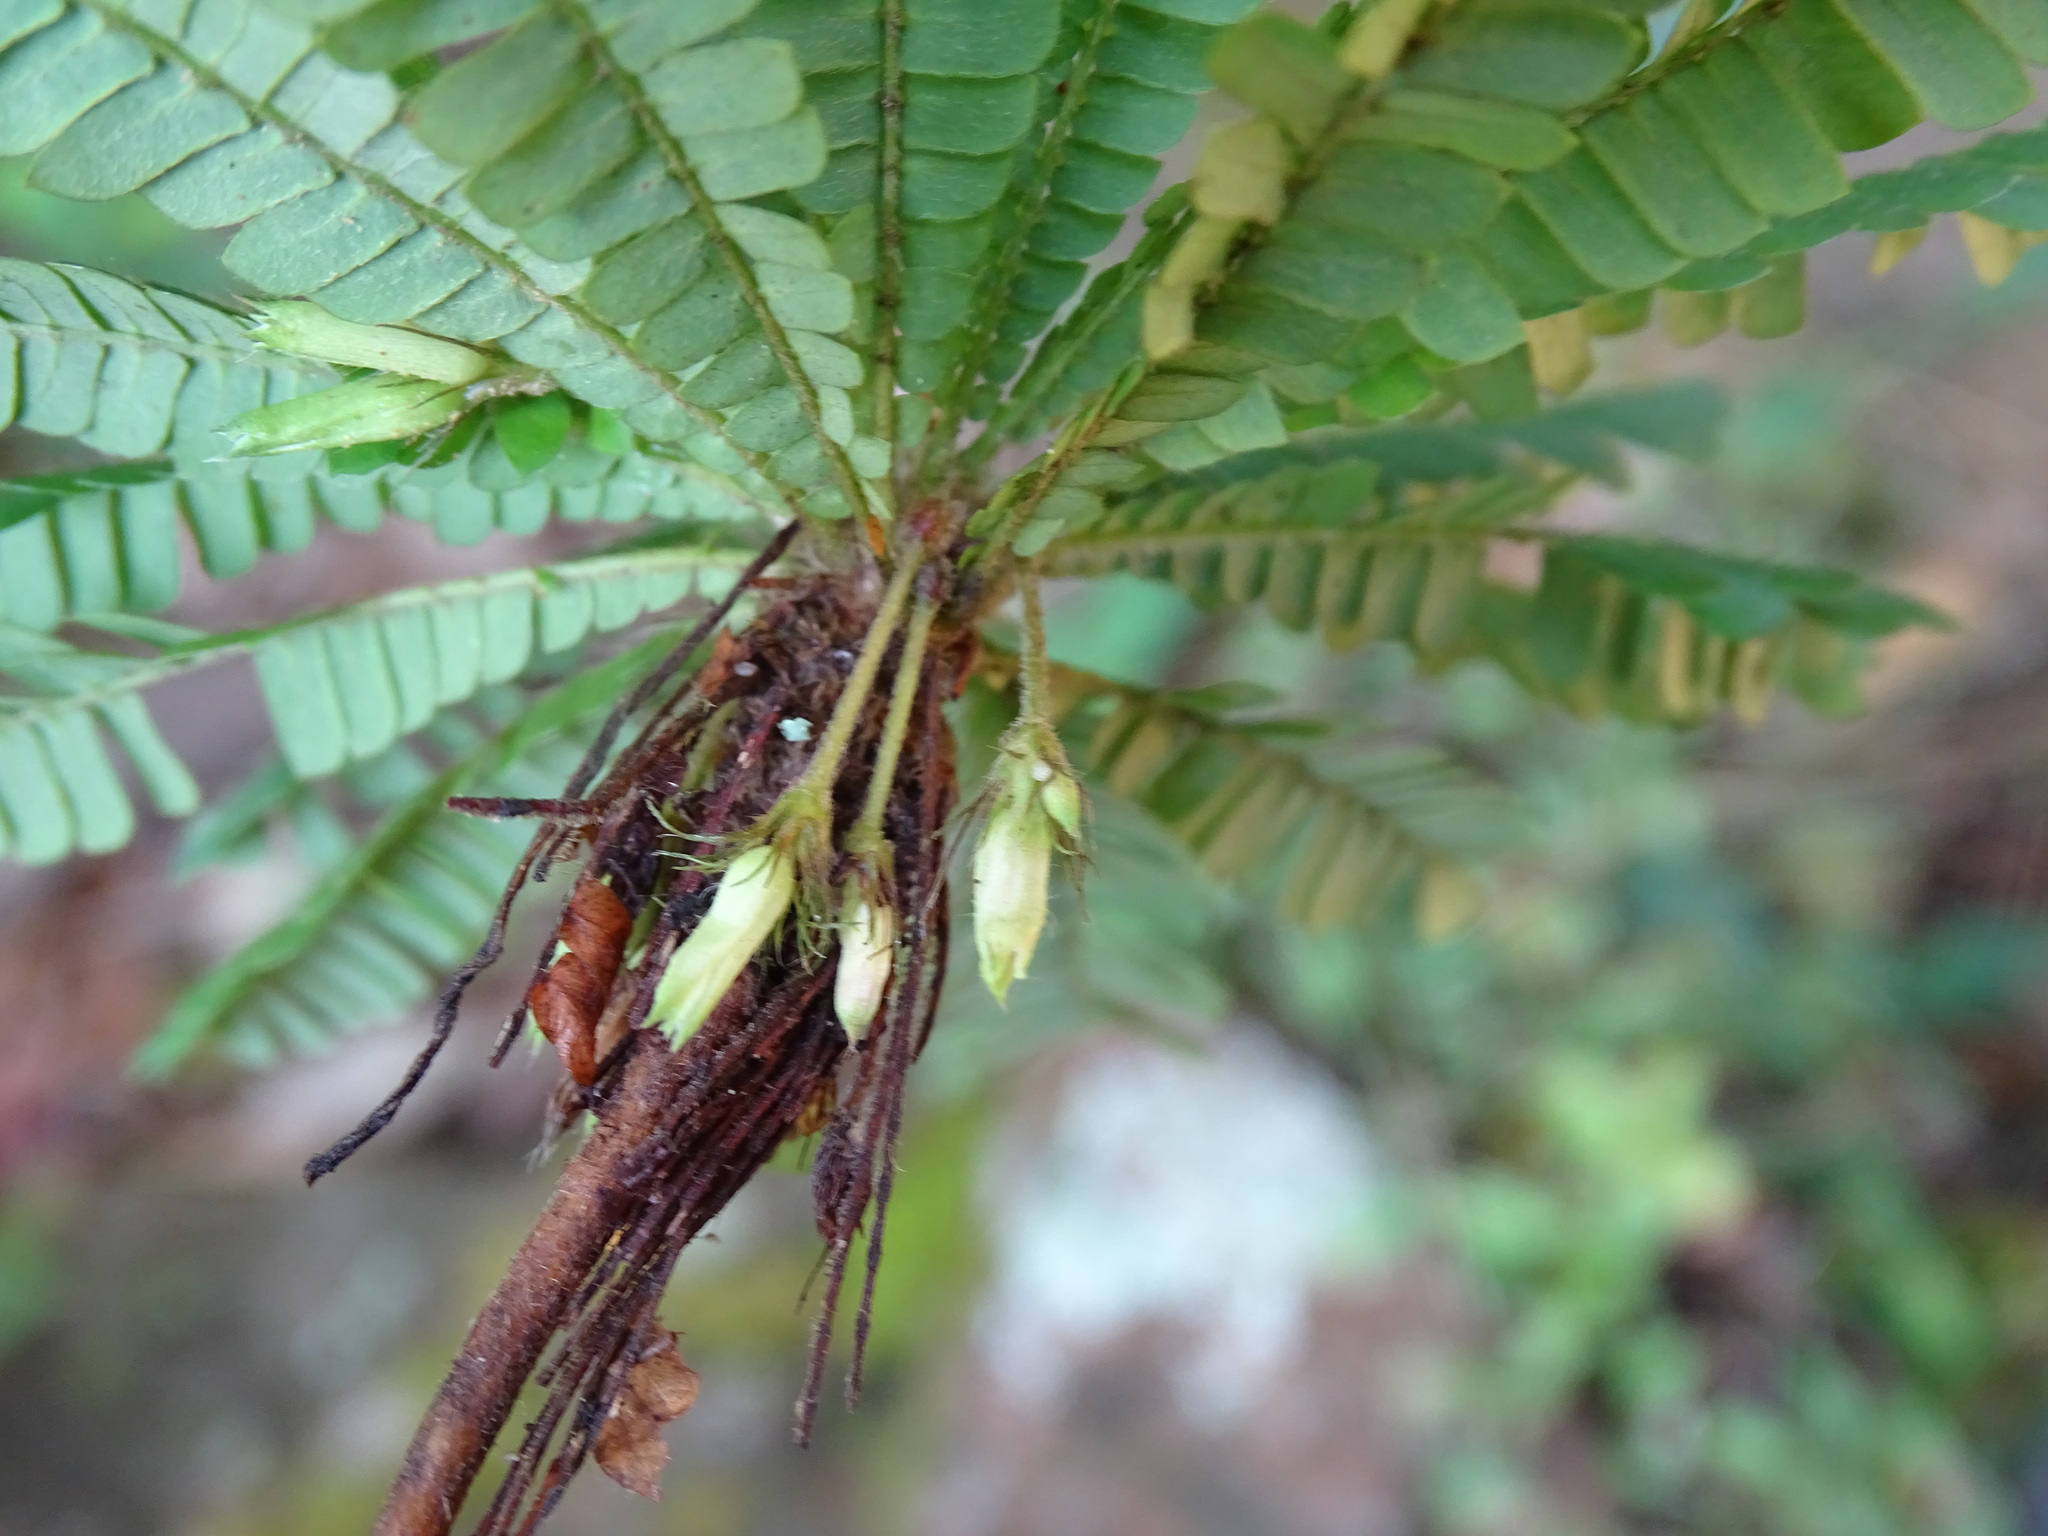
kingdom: Plantae
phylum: Tracheophyta
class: Magnoliopsida
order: Oxalidales
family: Oxalidaceae
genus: Biophytum
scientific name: Biophytum dendroides
